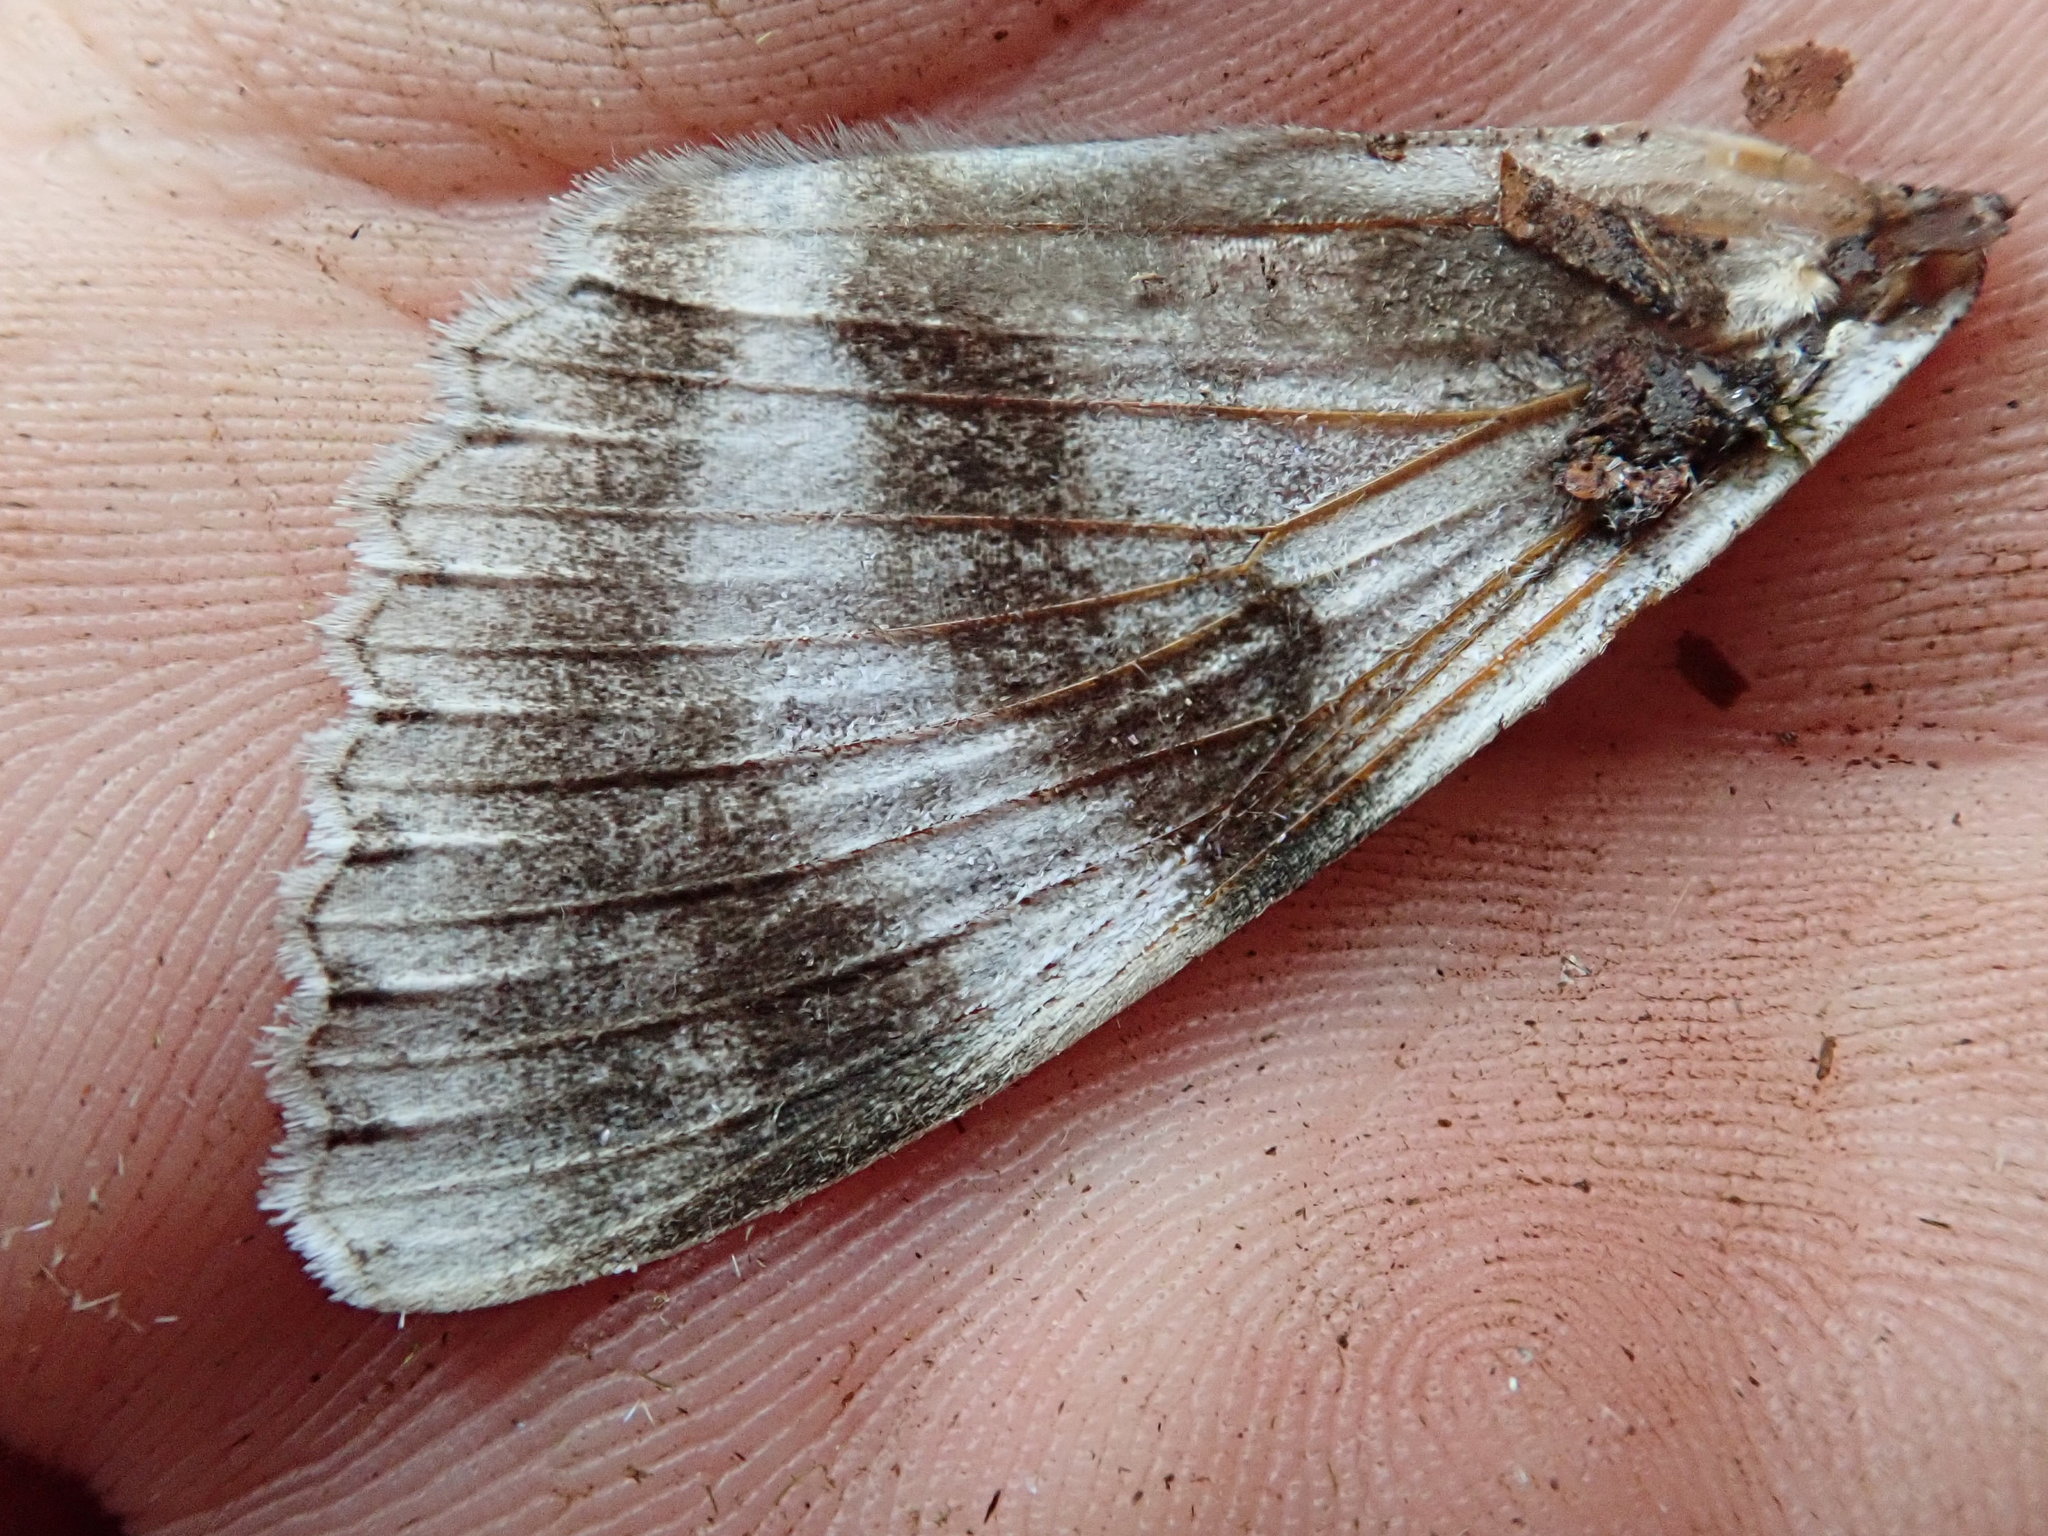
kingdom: Animalia
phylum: Arthropoda
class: Insecta
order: Lepidoptera
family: Erebidae
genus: Catocala
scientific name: Catocala relicta
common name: White underwing
